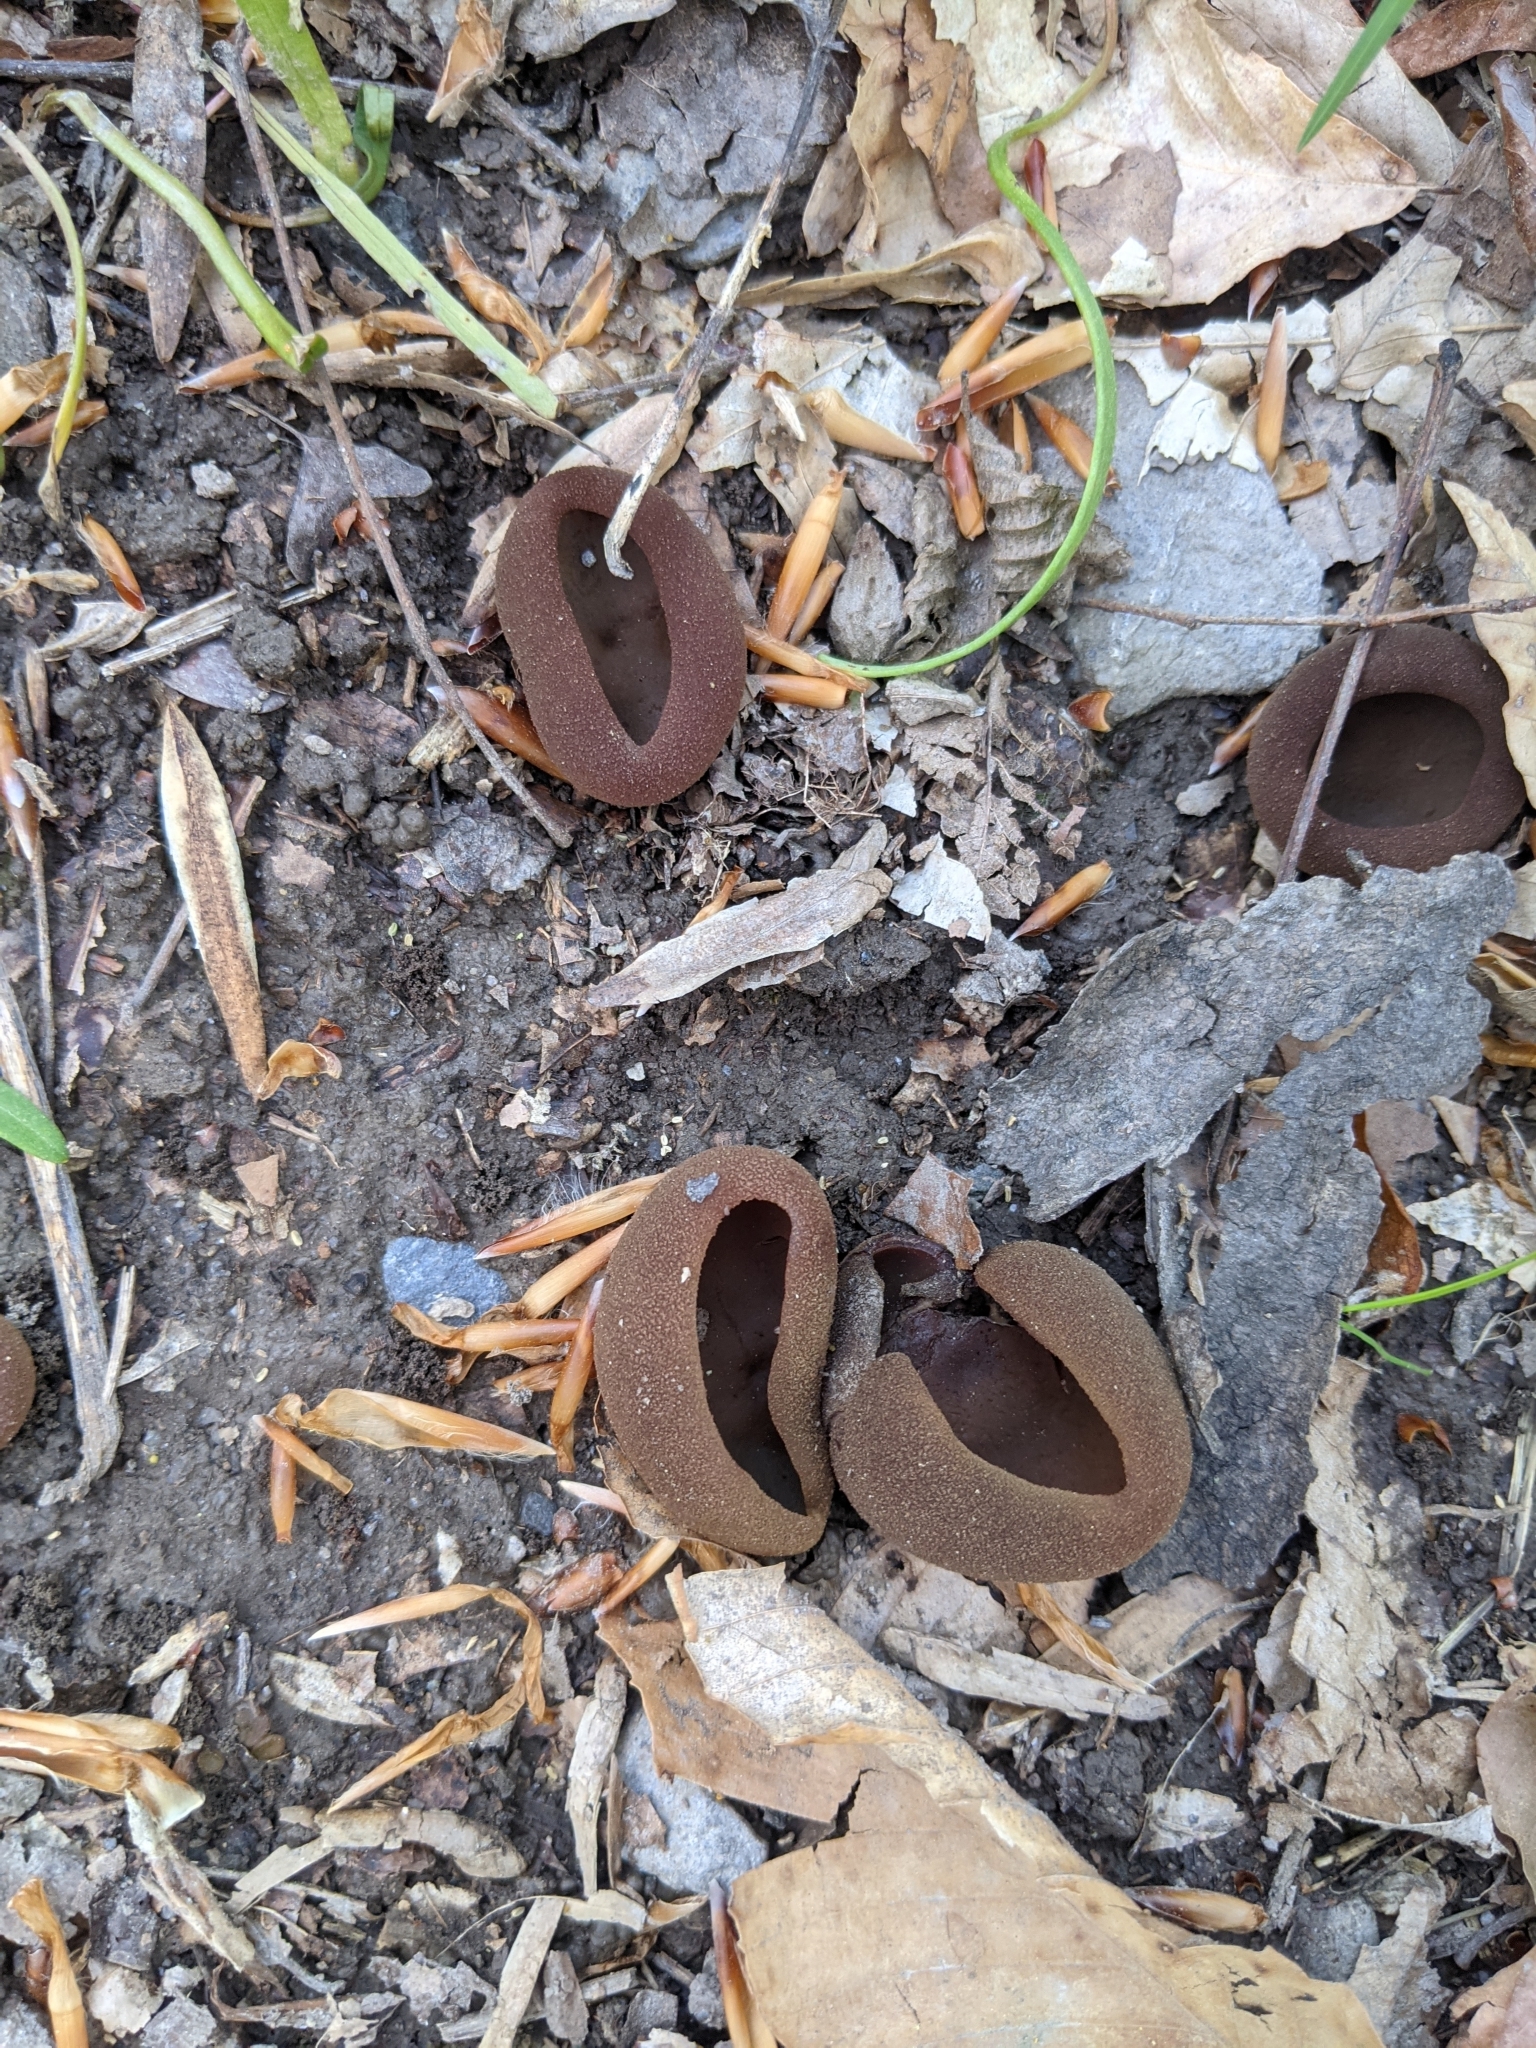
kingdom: Fungi
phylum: Ascomycota
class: Pezizomycetes
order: Pezizales
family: Pezizaceae
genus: Phylloscypha
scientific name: Phylloscypha phyllogena
